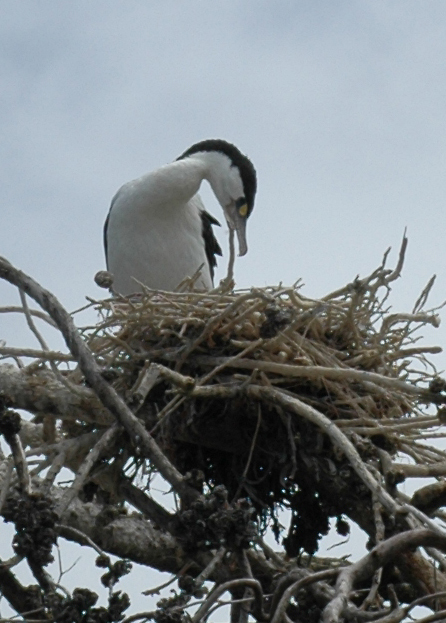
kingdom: Animalia
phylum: Chordata
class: Aves
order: Suliformes
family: Phalacrocoracidae
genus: Phalacrocorax
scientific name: Phalacrocorax varius
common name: Pied cormorant
